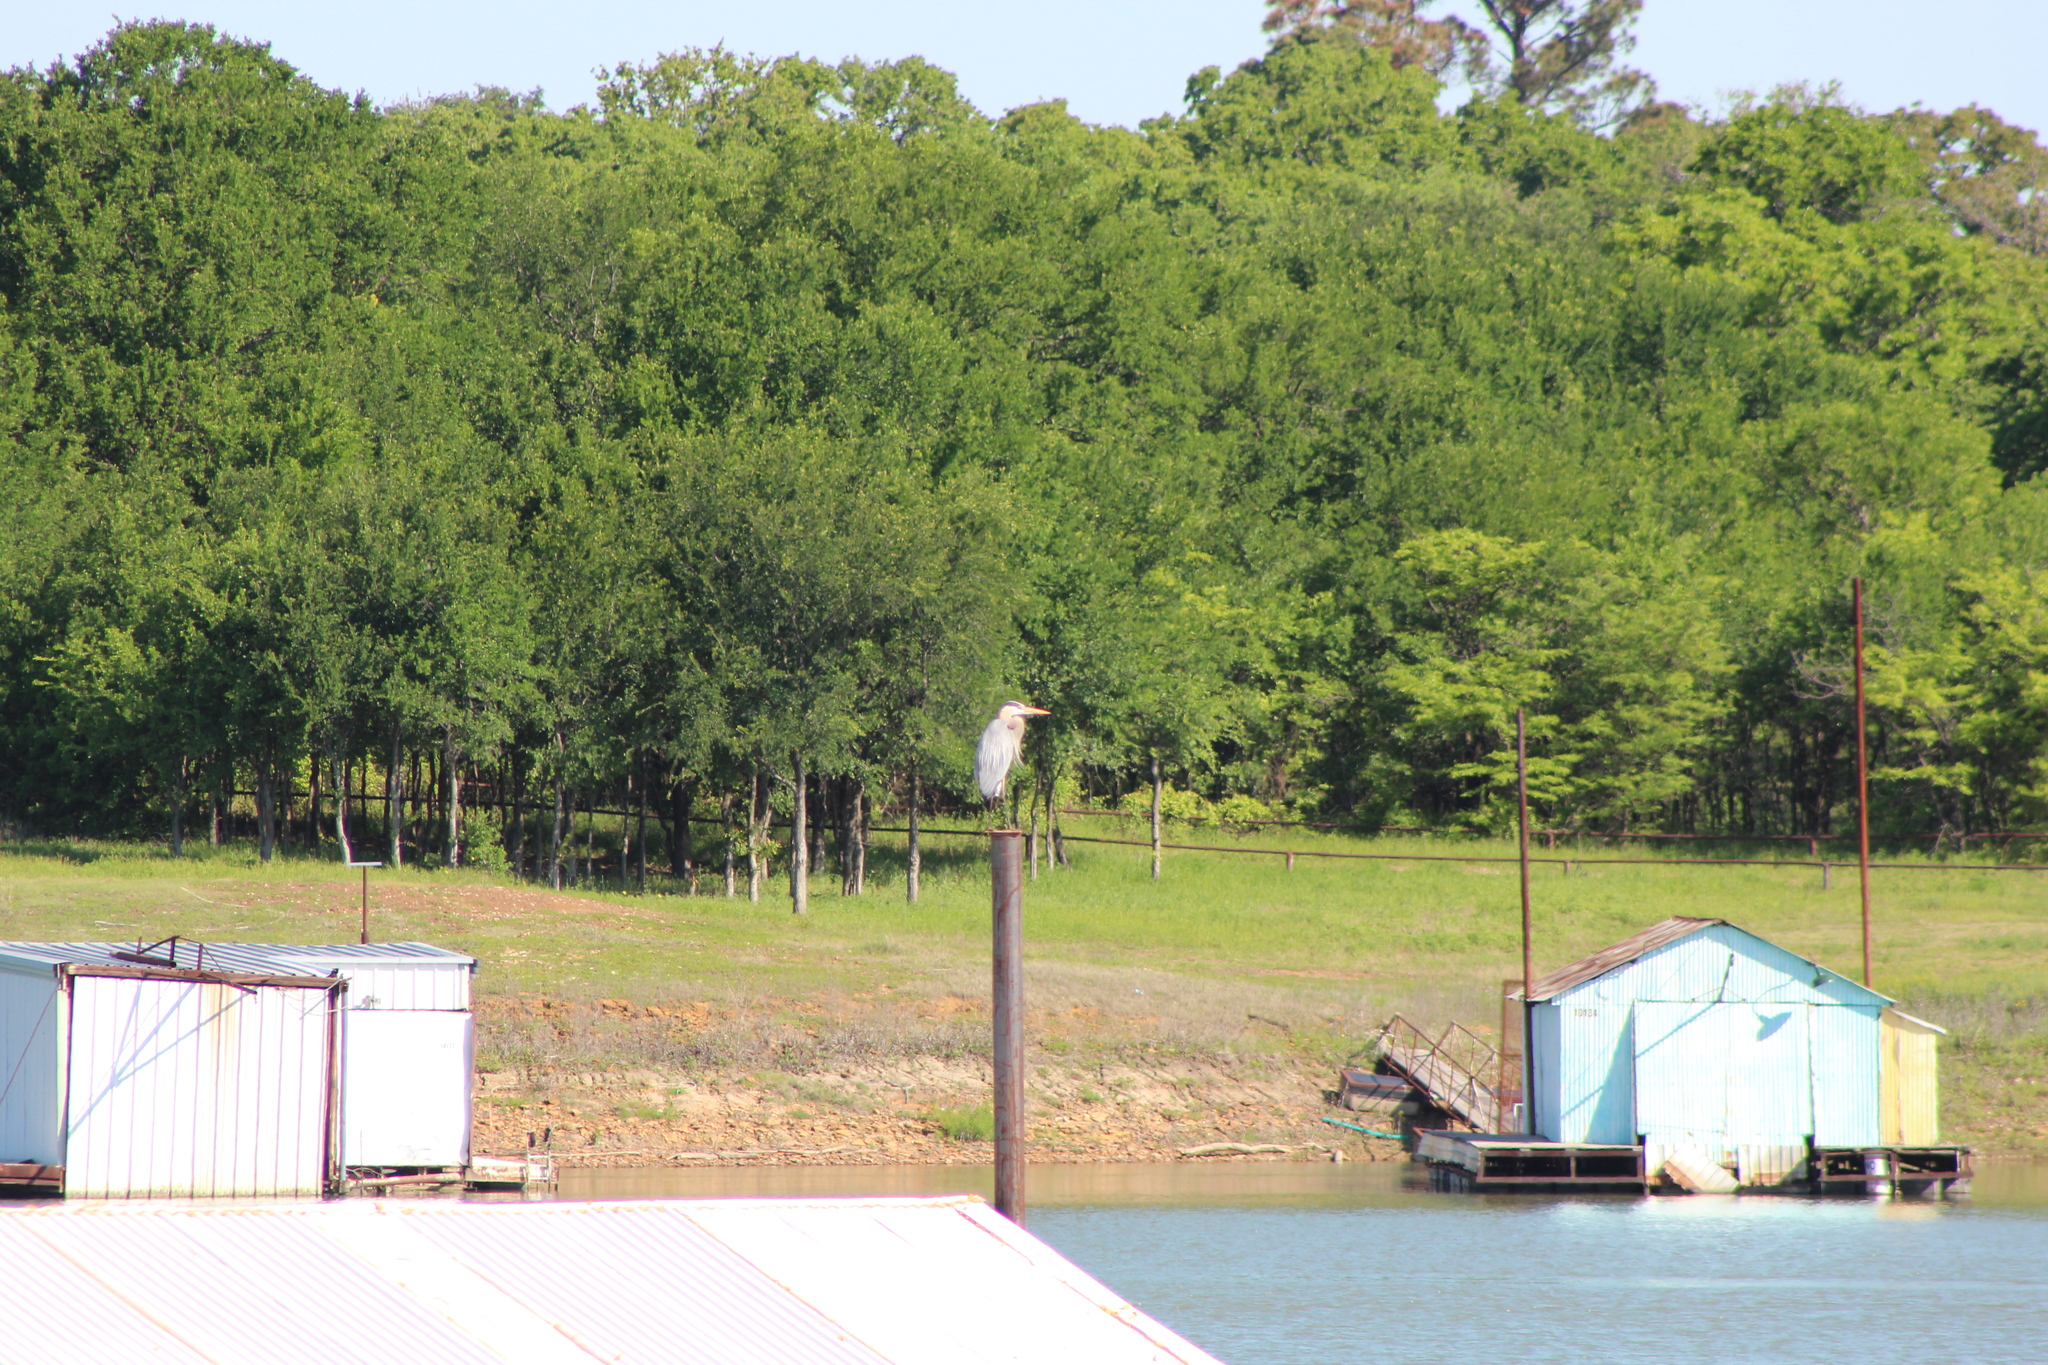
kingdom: Animalia
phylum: Chordata
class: Aves
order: Pelecaniformes
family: Ardeidae
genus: Ardea
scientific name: Ardea herodias
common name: Great blue heron
